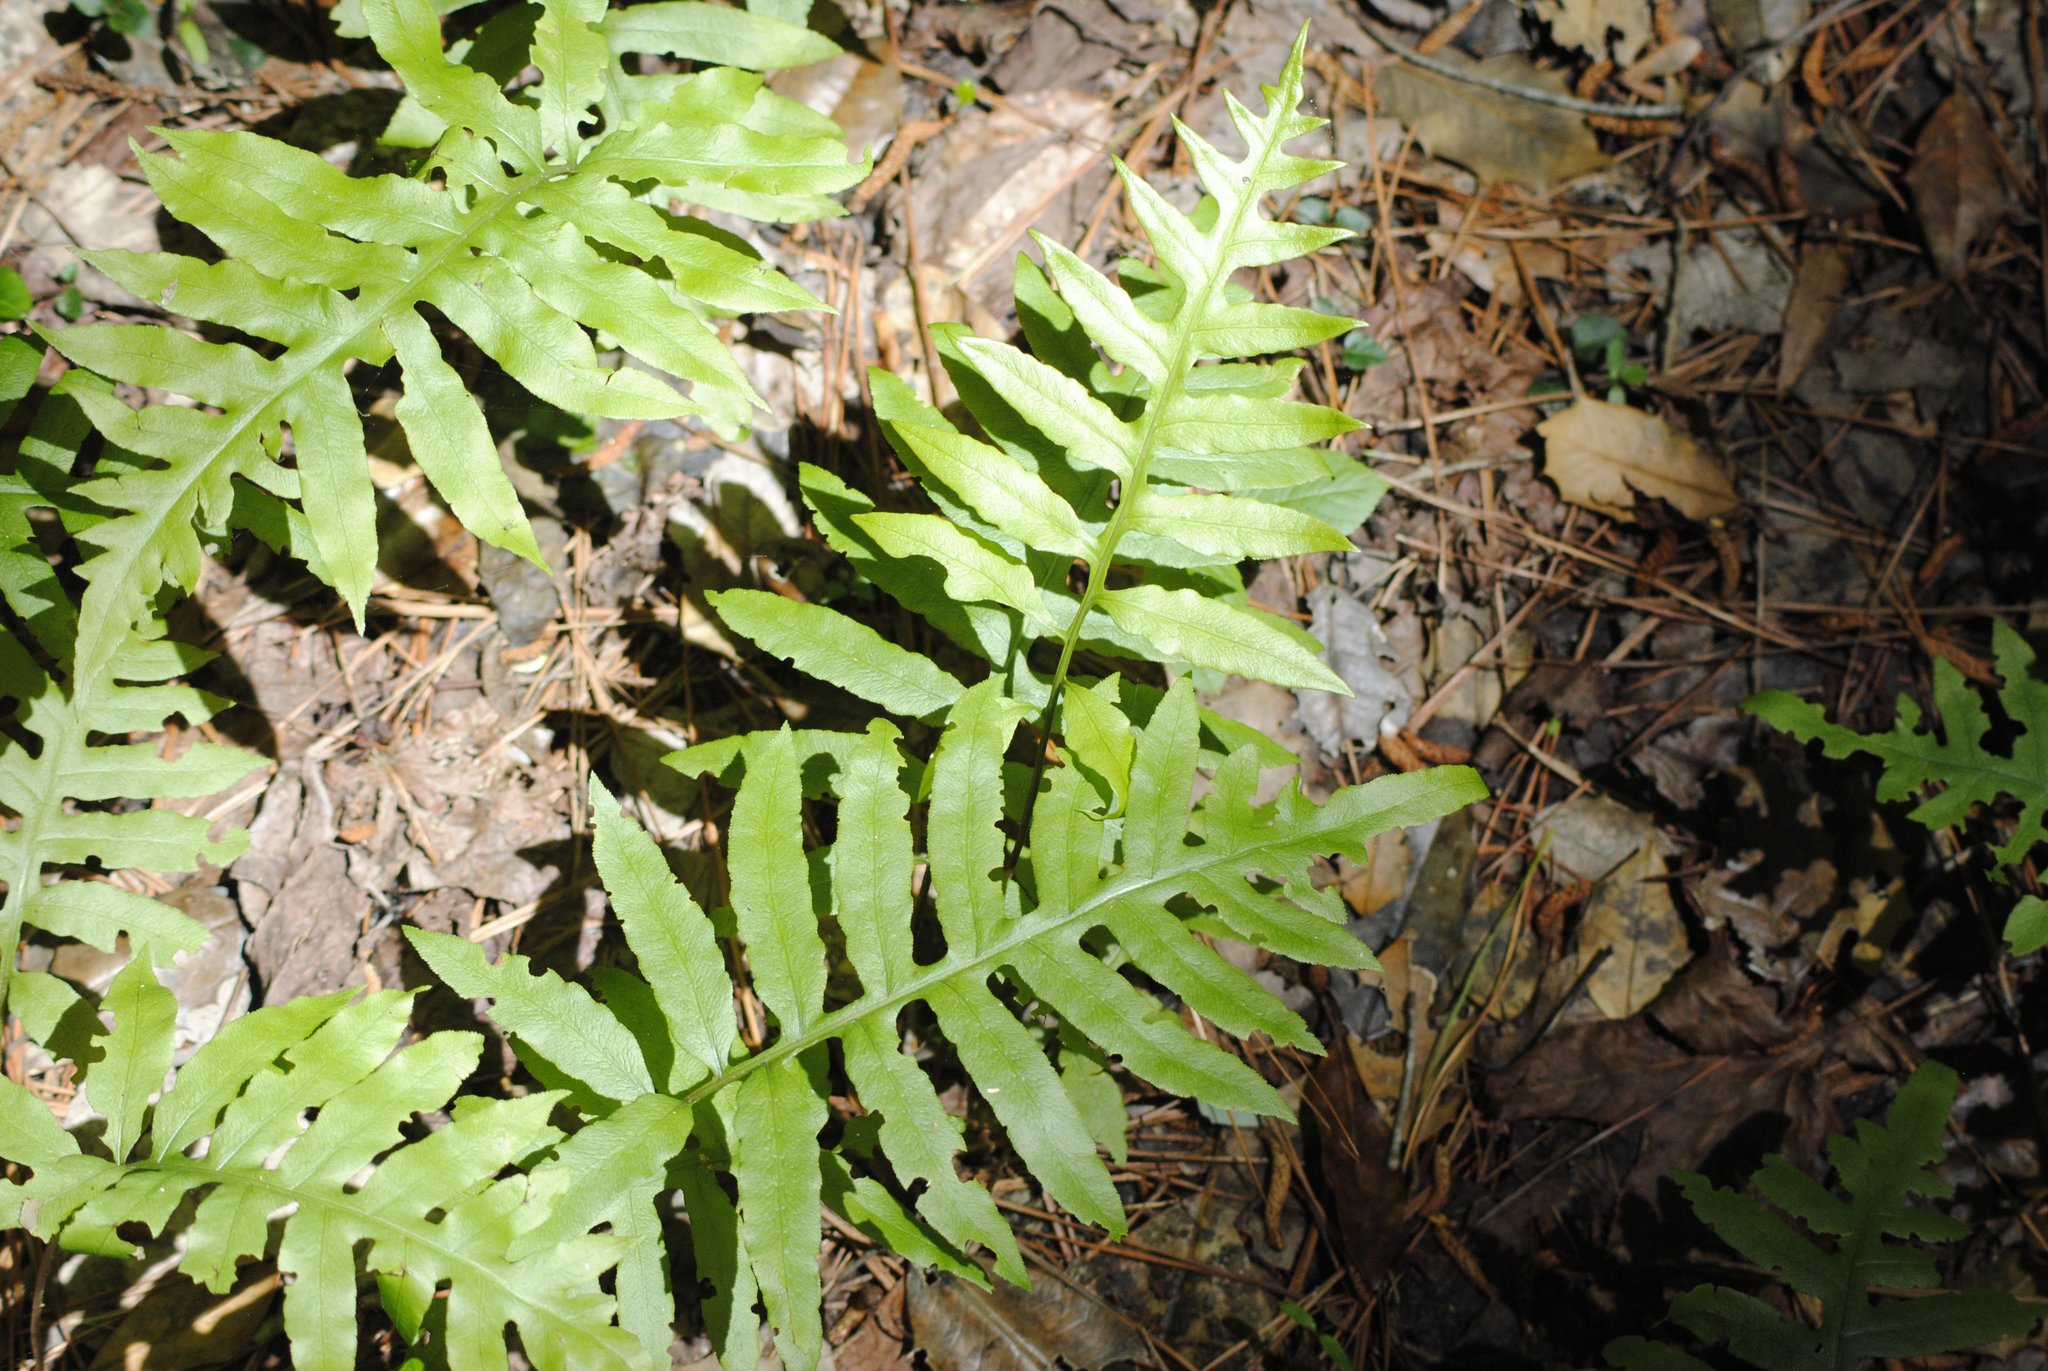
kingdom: Plantae
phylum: Tracheophyta
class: Polypodiopsida
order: Polypodiales
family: Blechnaceae
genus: Lorinseria
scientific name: Lorinseria areolata
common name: Dwarf chain fern
